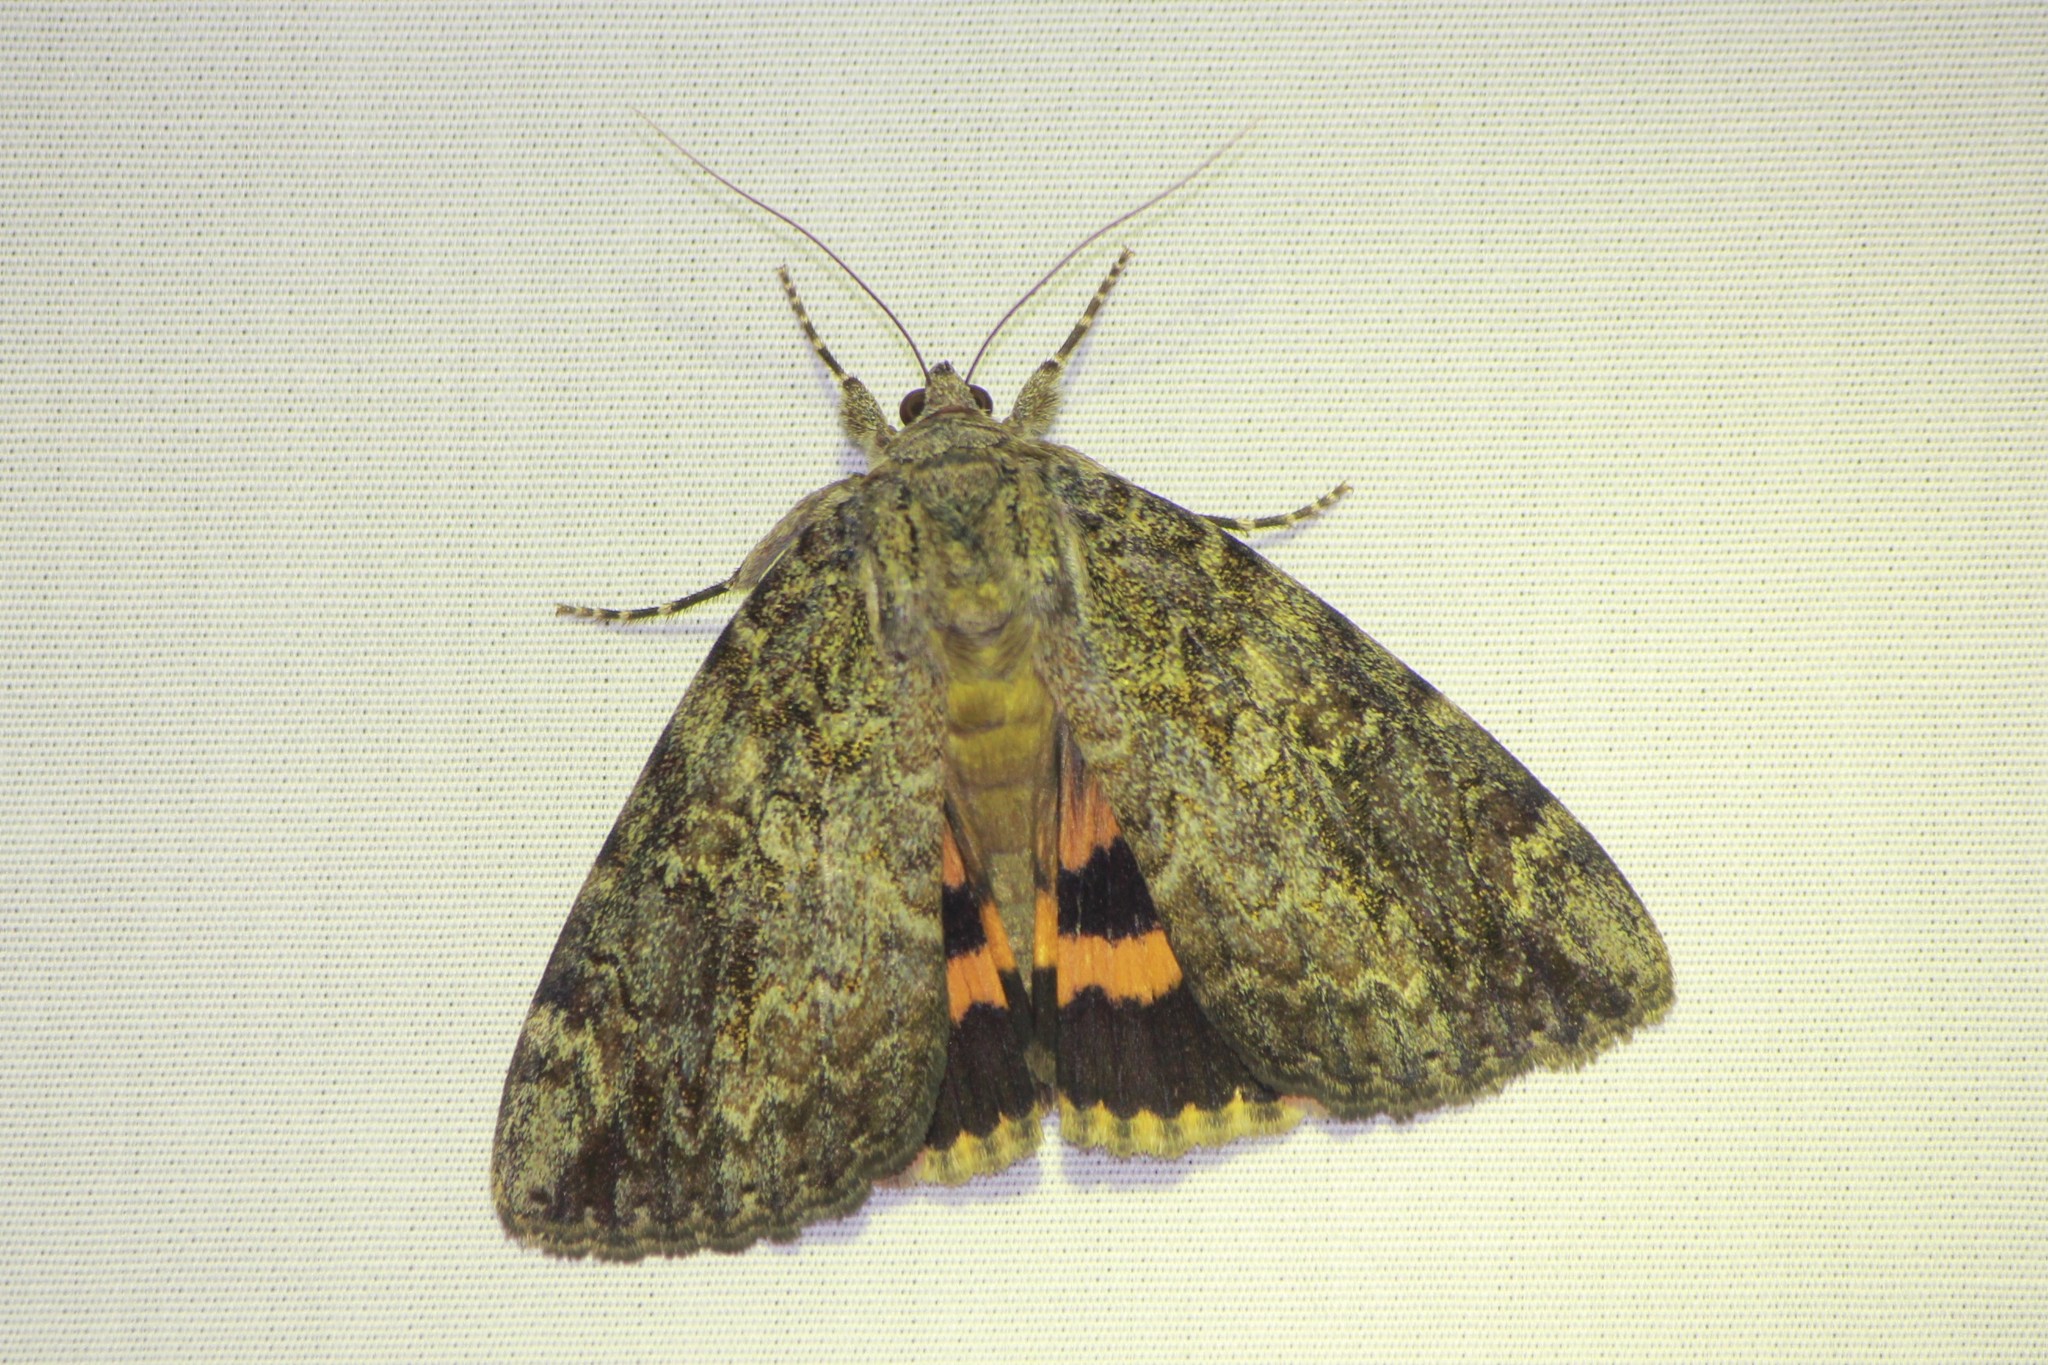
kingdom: Animalia
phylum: Arthropoda
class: Insecta
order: Lepidoptera
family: Erebidae
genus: Catocala
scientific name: Catocala innubens
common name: Betrothed underwing
